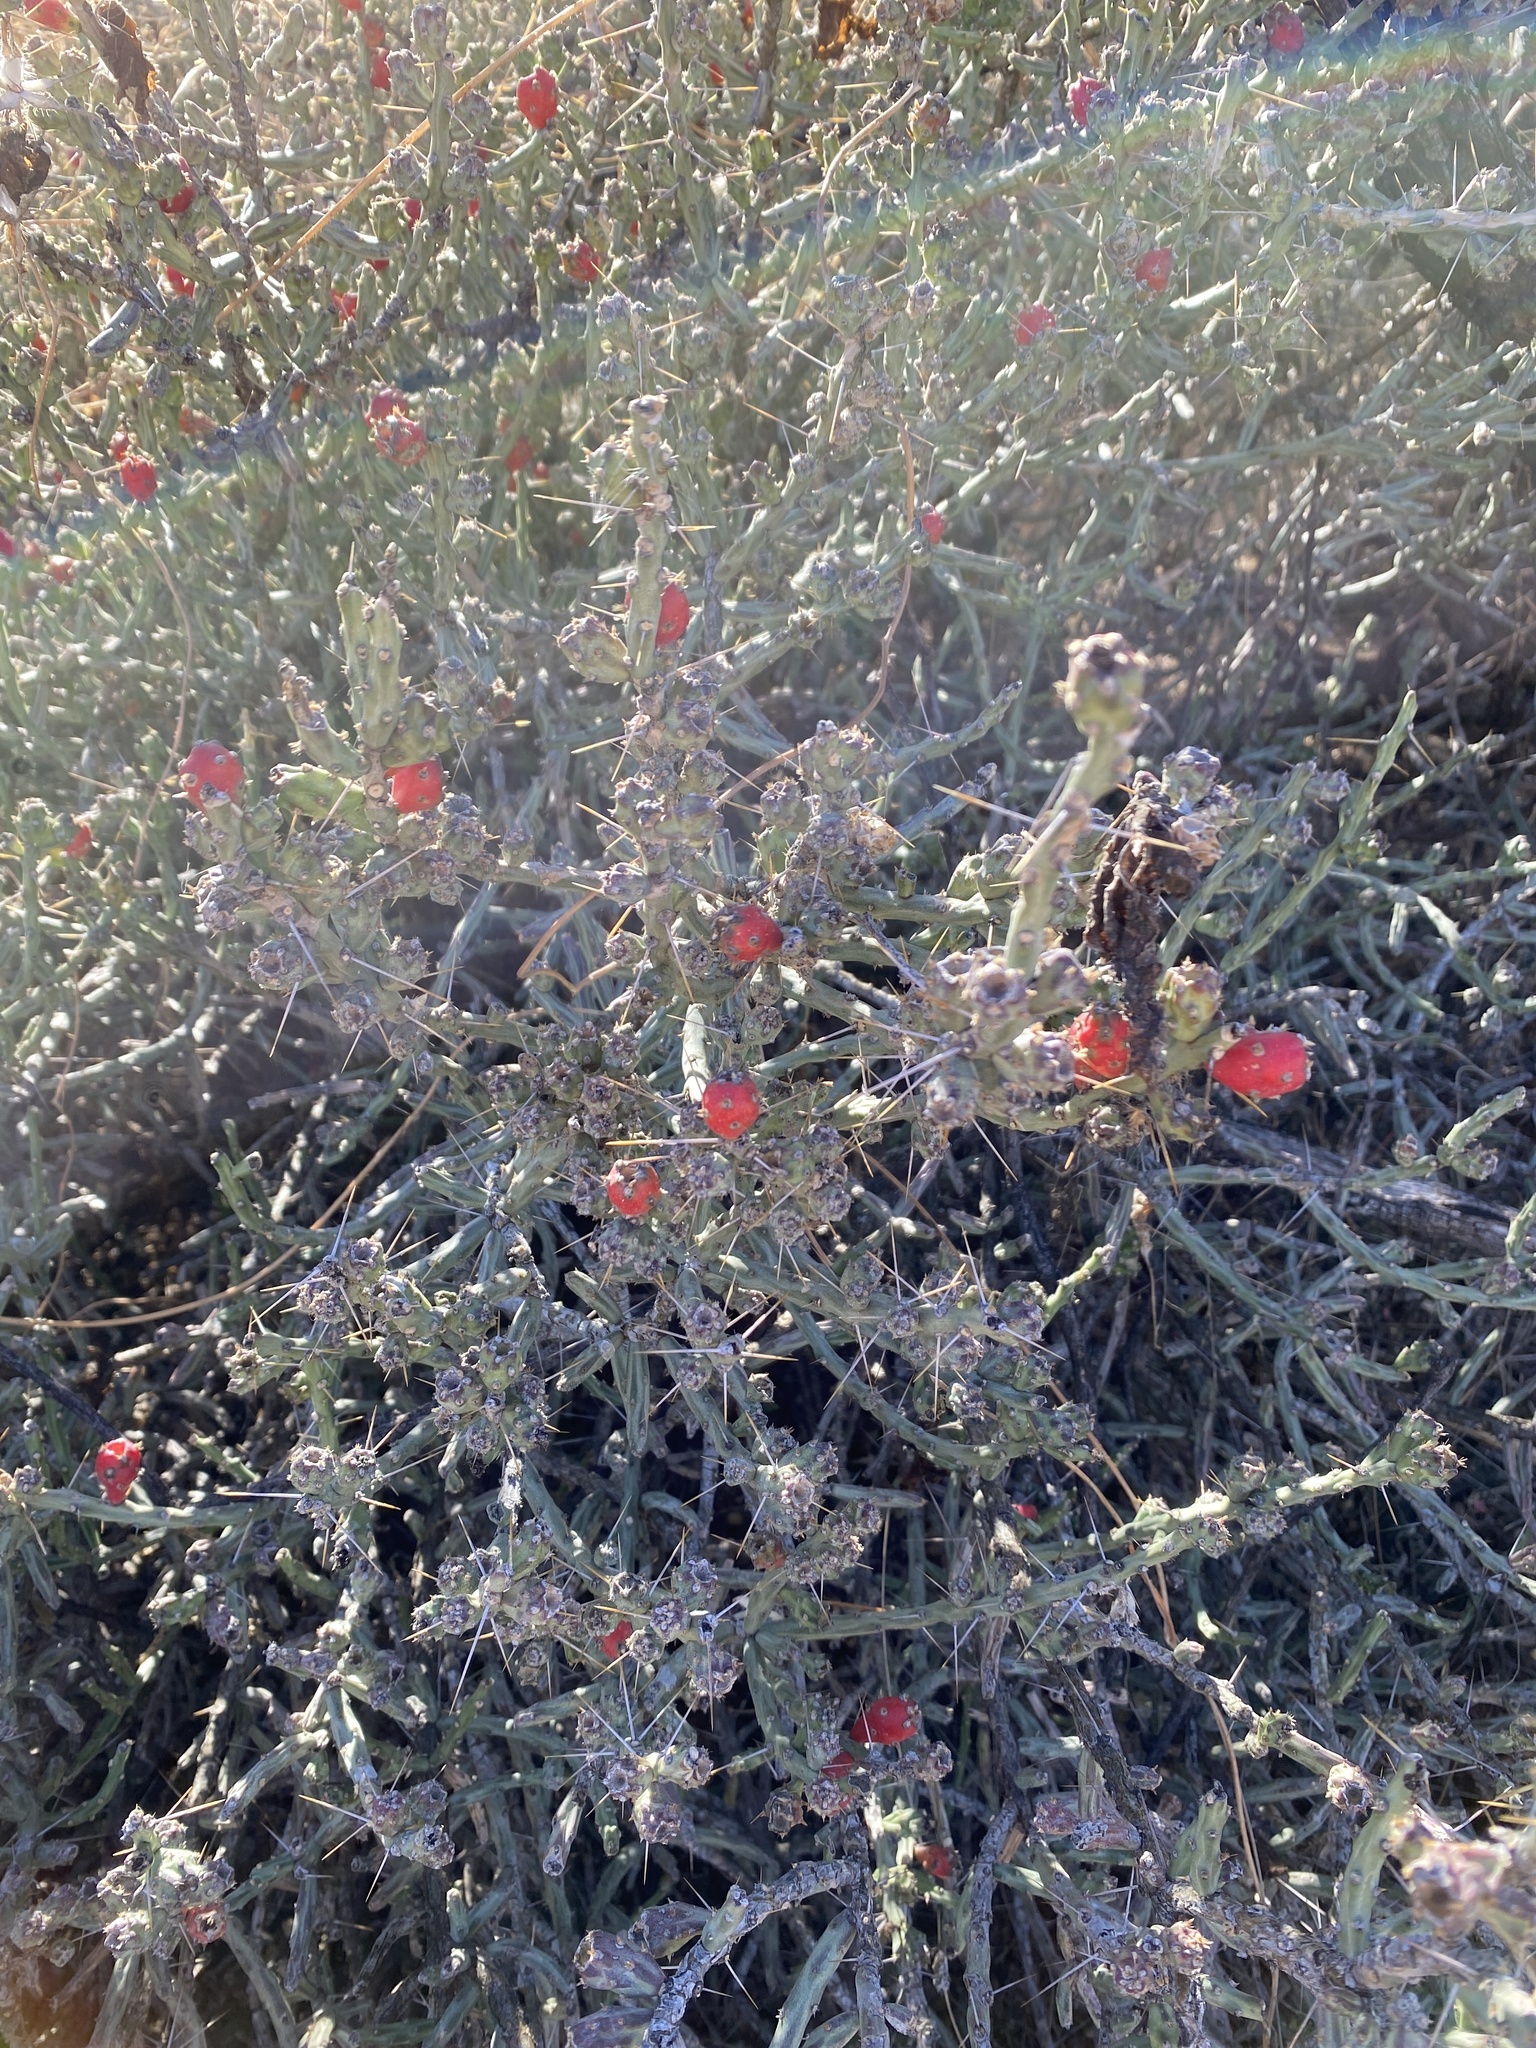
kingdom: Plantae
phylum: Tracheophyta
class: Magnoliopsida
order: Caryophyllales
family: Cactaceae
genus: Cylindropuntia
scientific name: Cylindropuntia leptocaulis
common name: Christmas cactus
